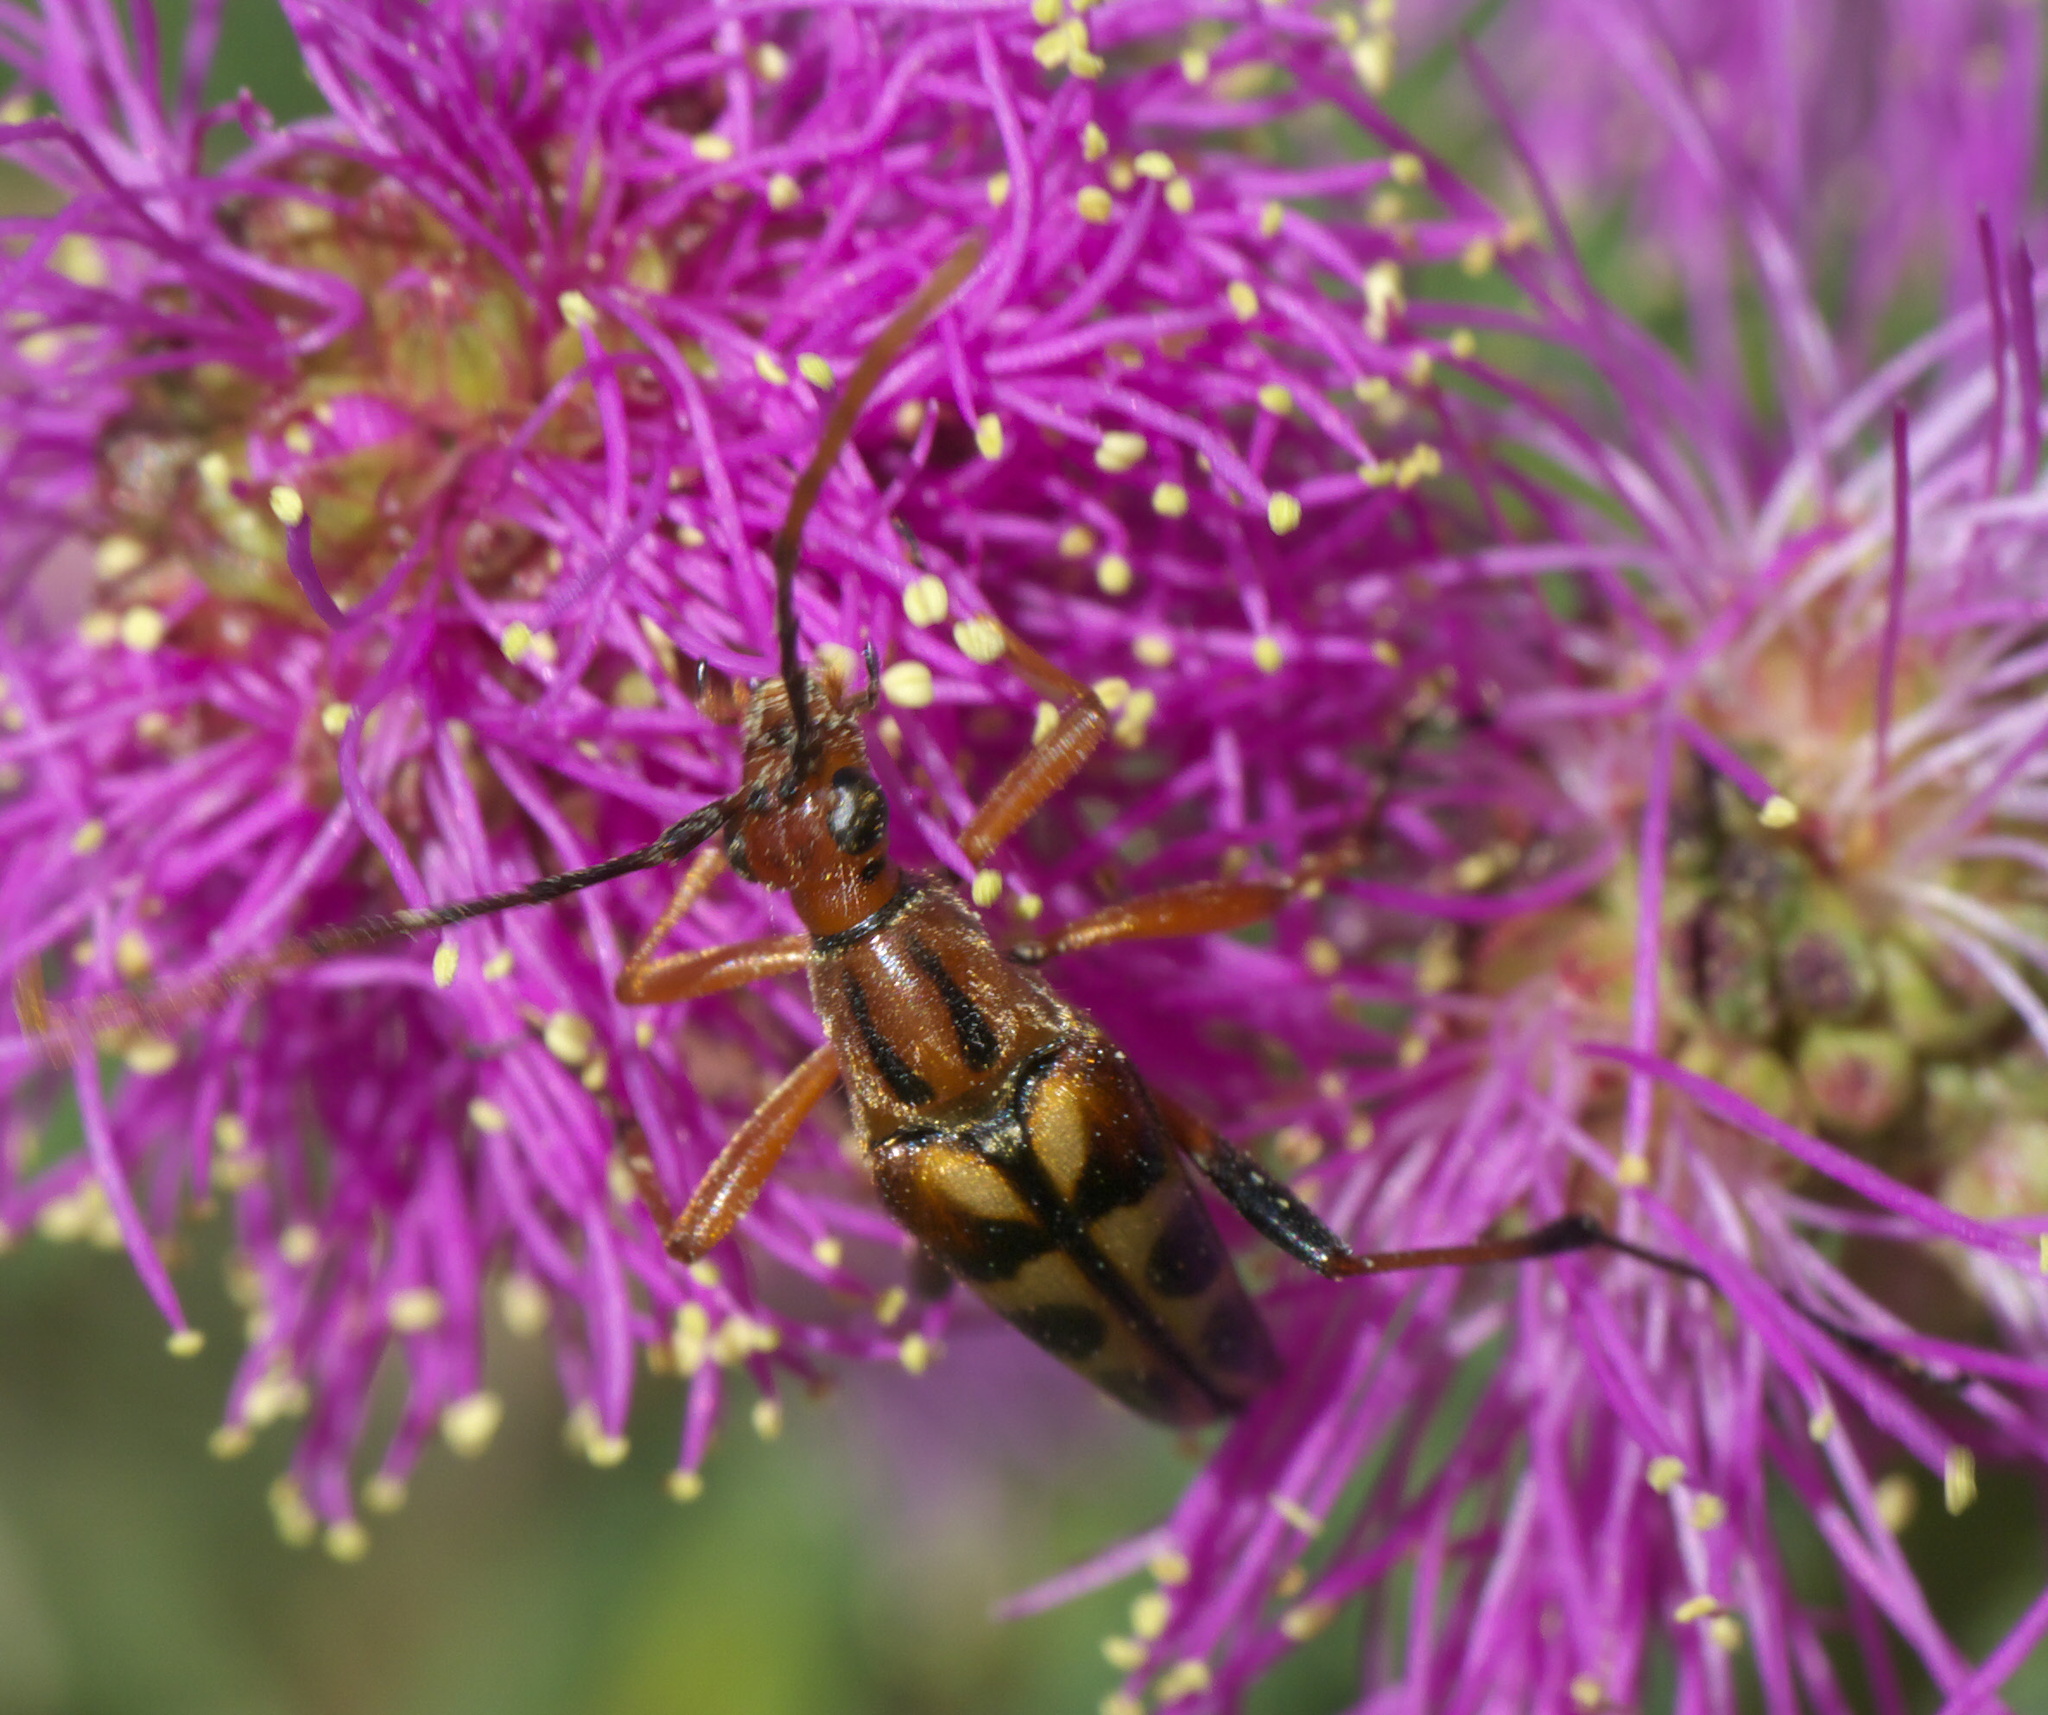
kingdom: Animalia
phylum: Arthropoda
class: Insecta
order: Coleoptera
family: Cerambycidae
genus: Strangalia
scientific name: Strangalia virilis
